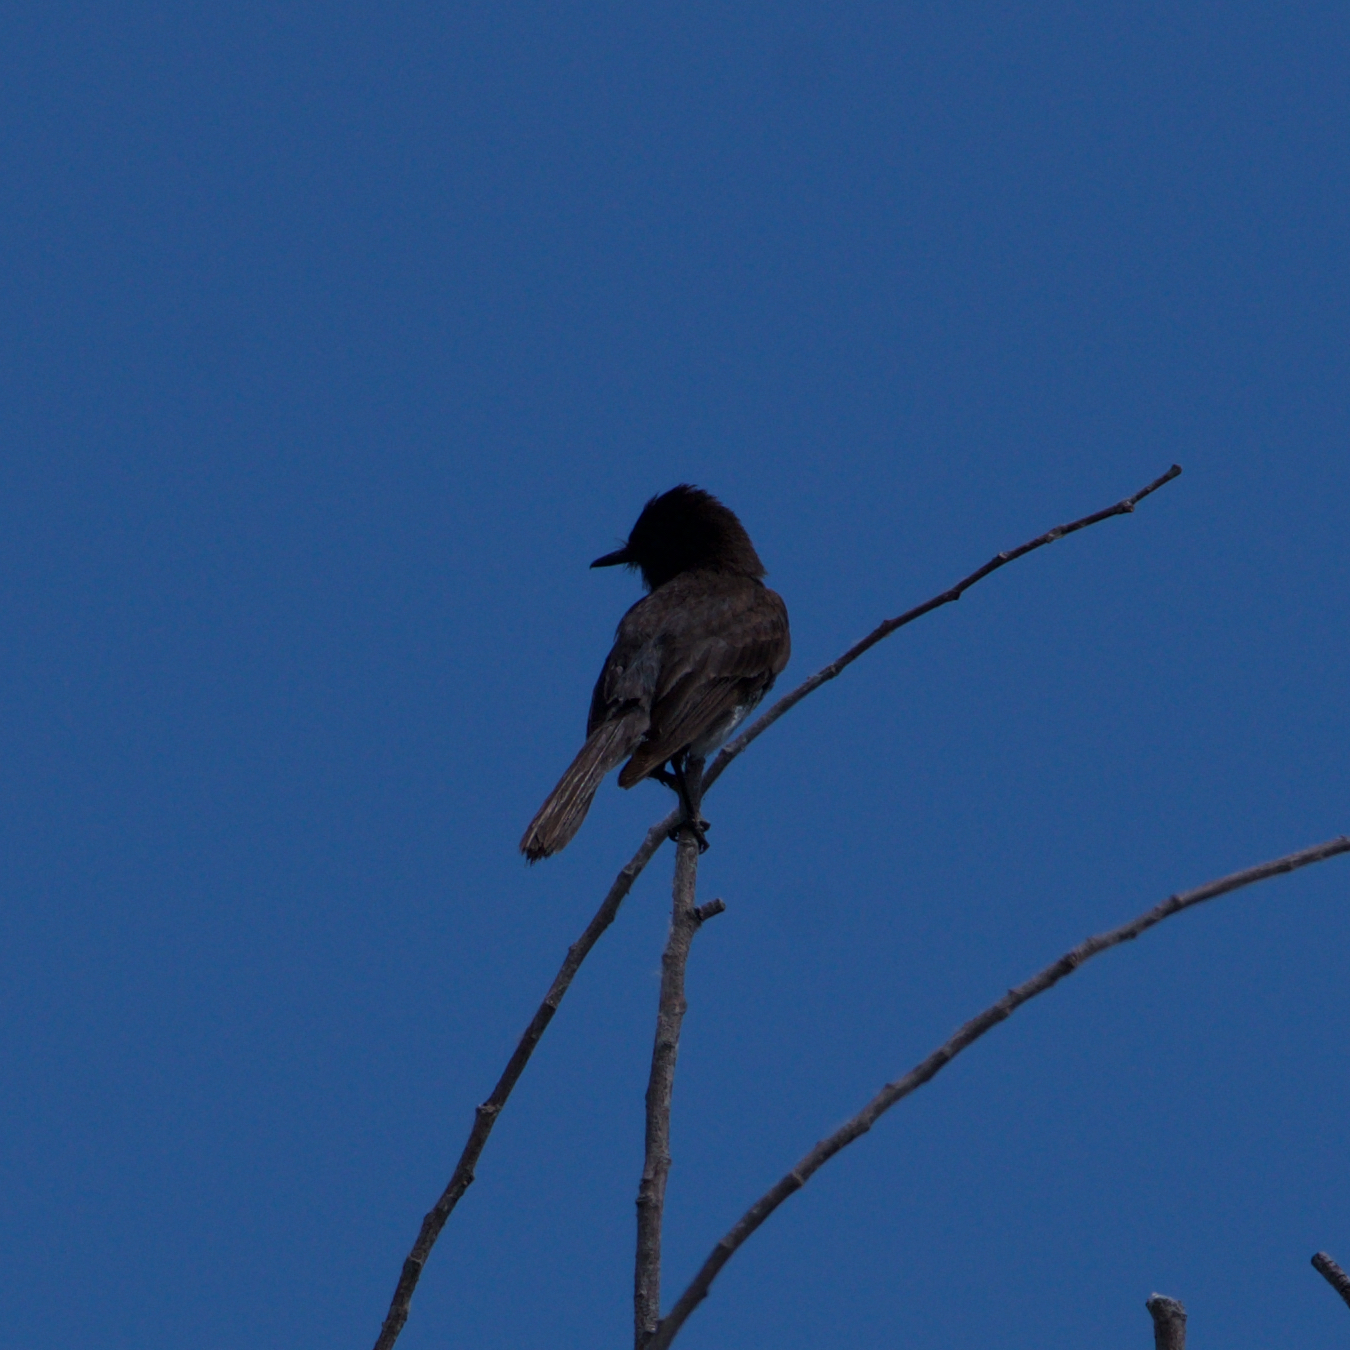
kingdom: Animalia
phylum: Chordata
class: Aves
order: Passeriformes
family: Tyrannidae
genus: Sayornis
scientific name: Sayornis nigricans
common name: Black phoebe
